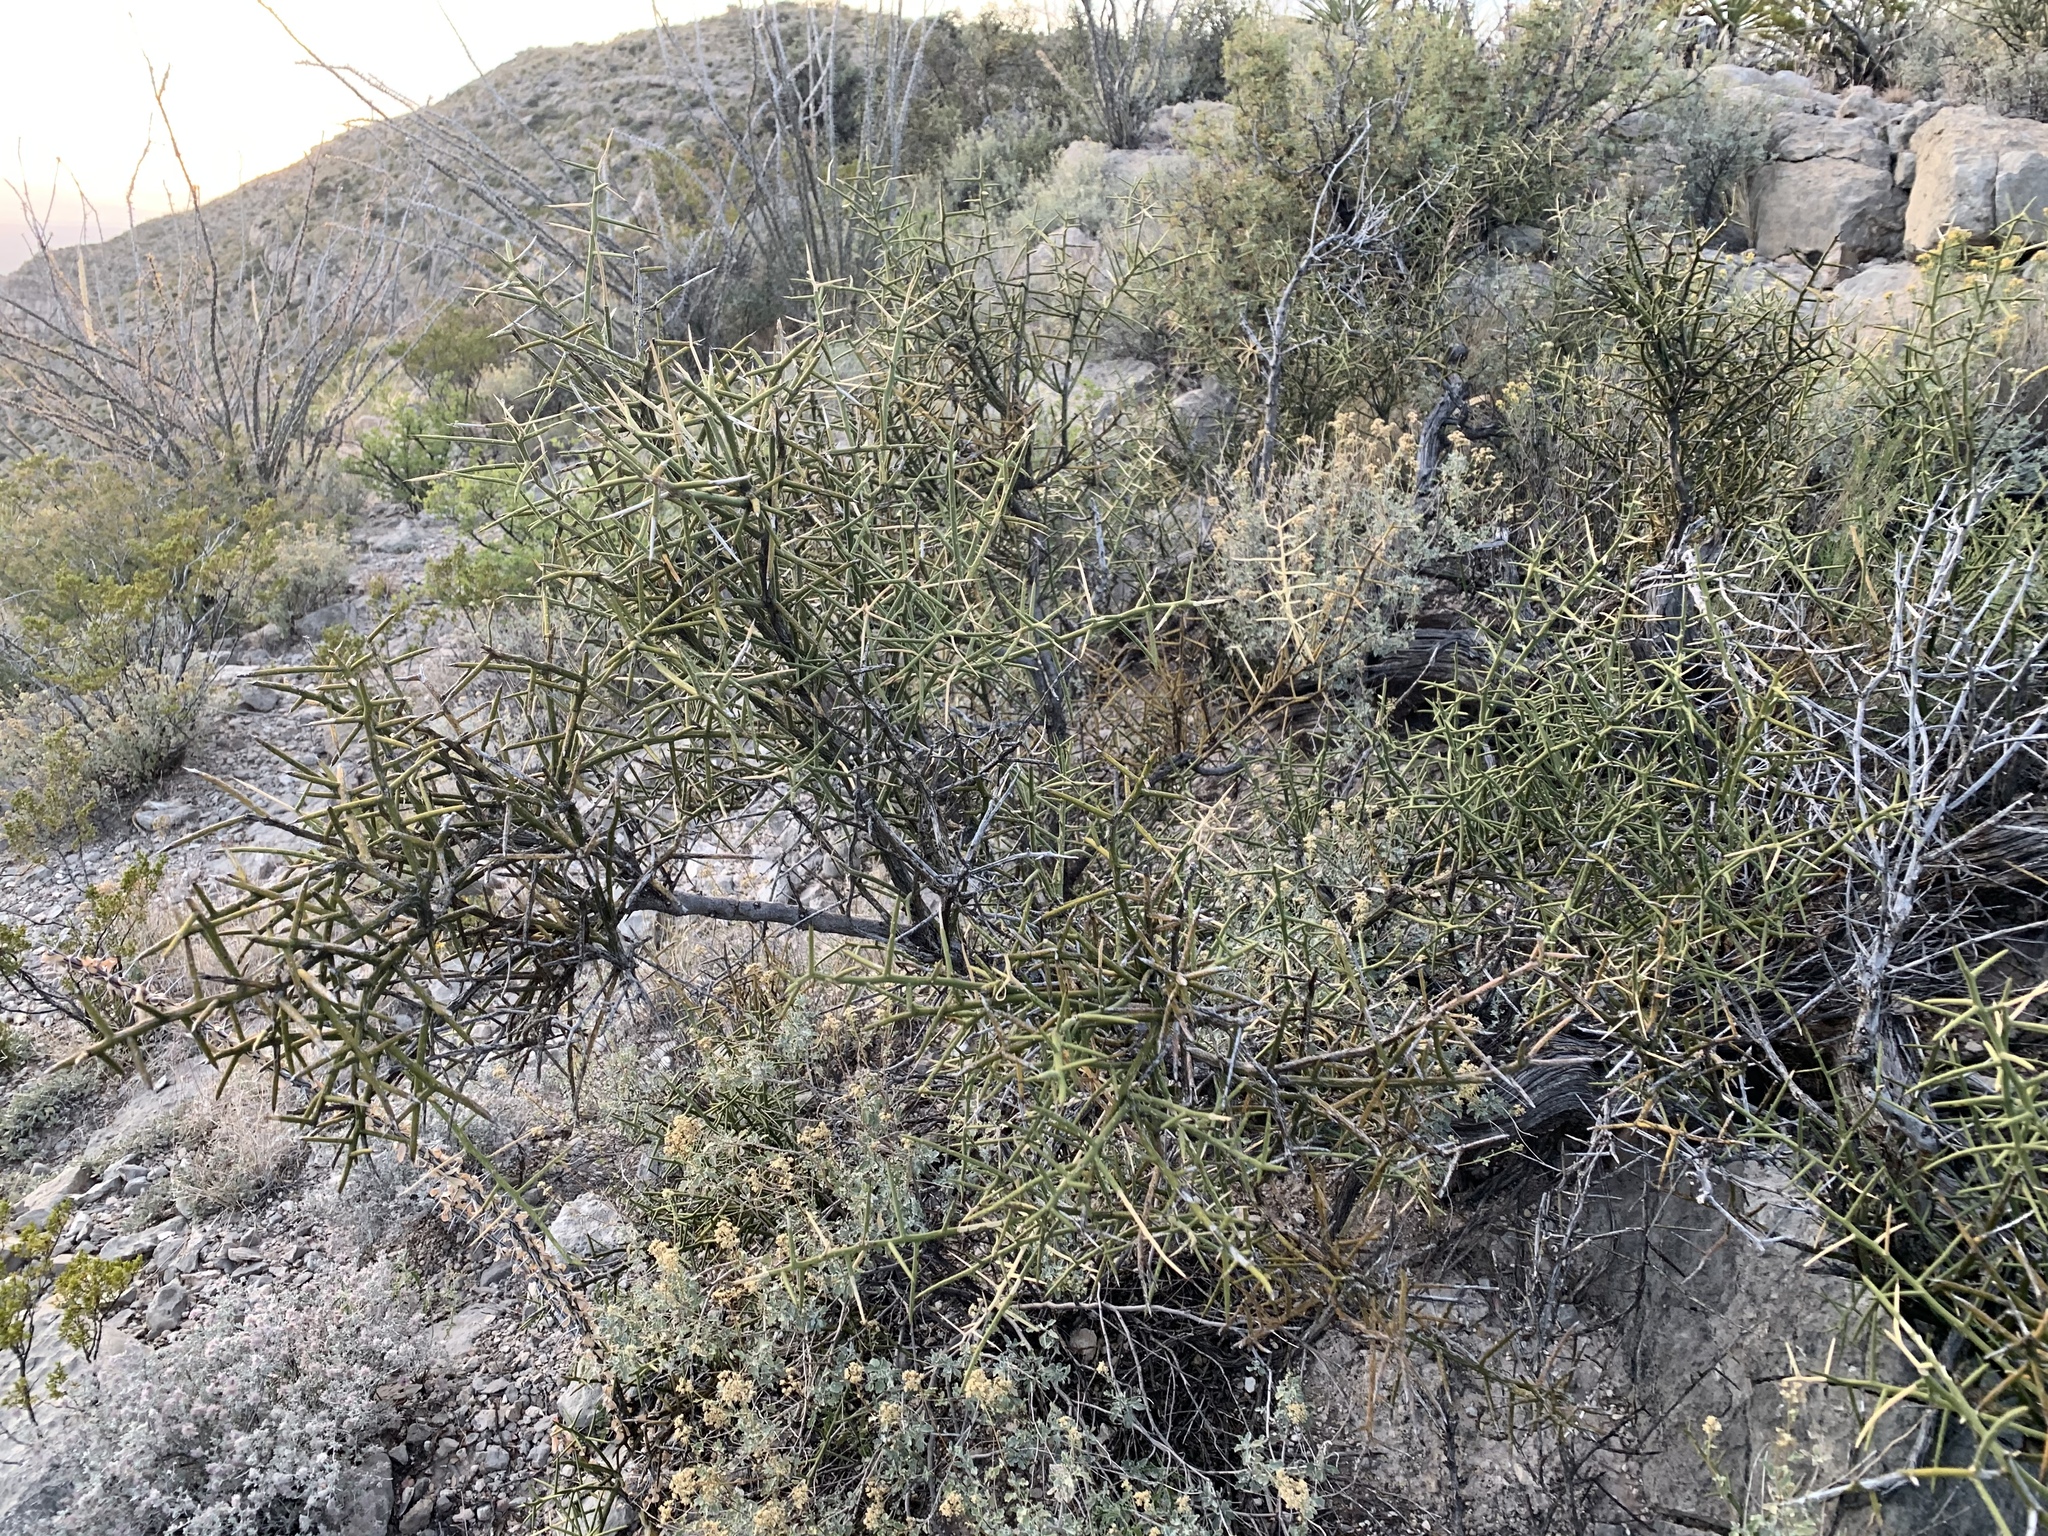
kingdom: Plantae
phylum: Tracheophyta
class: Magnoliopsida
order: Brassicales
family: Koeberliniaceae
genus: Koeberlinia
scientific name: Koeberlinia spinosa
